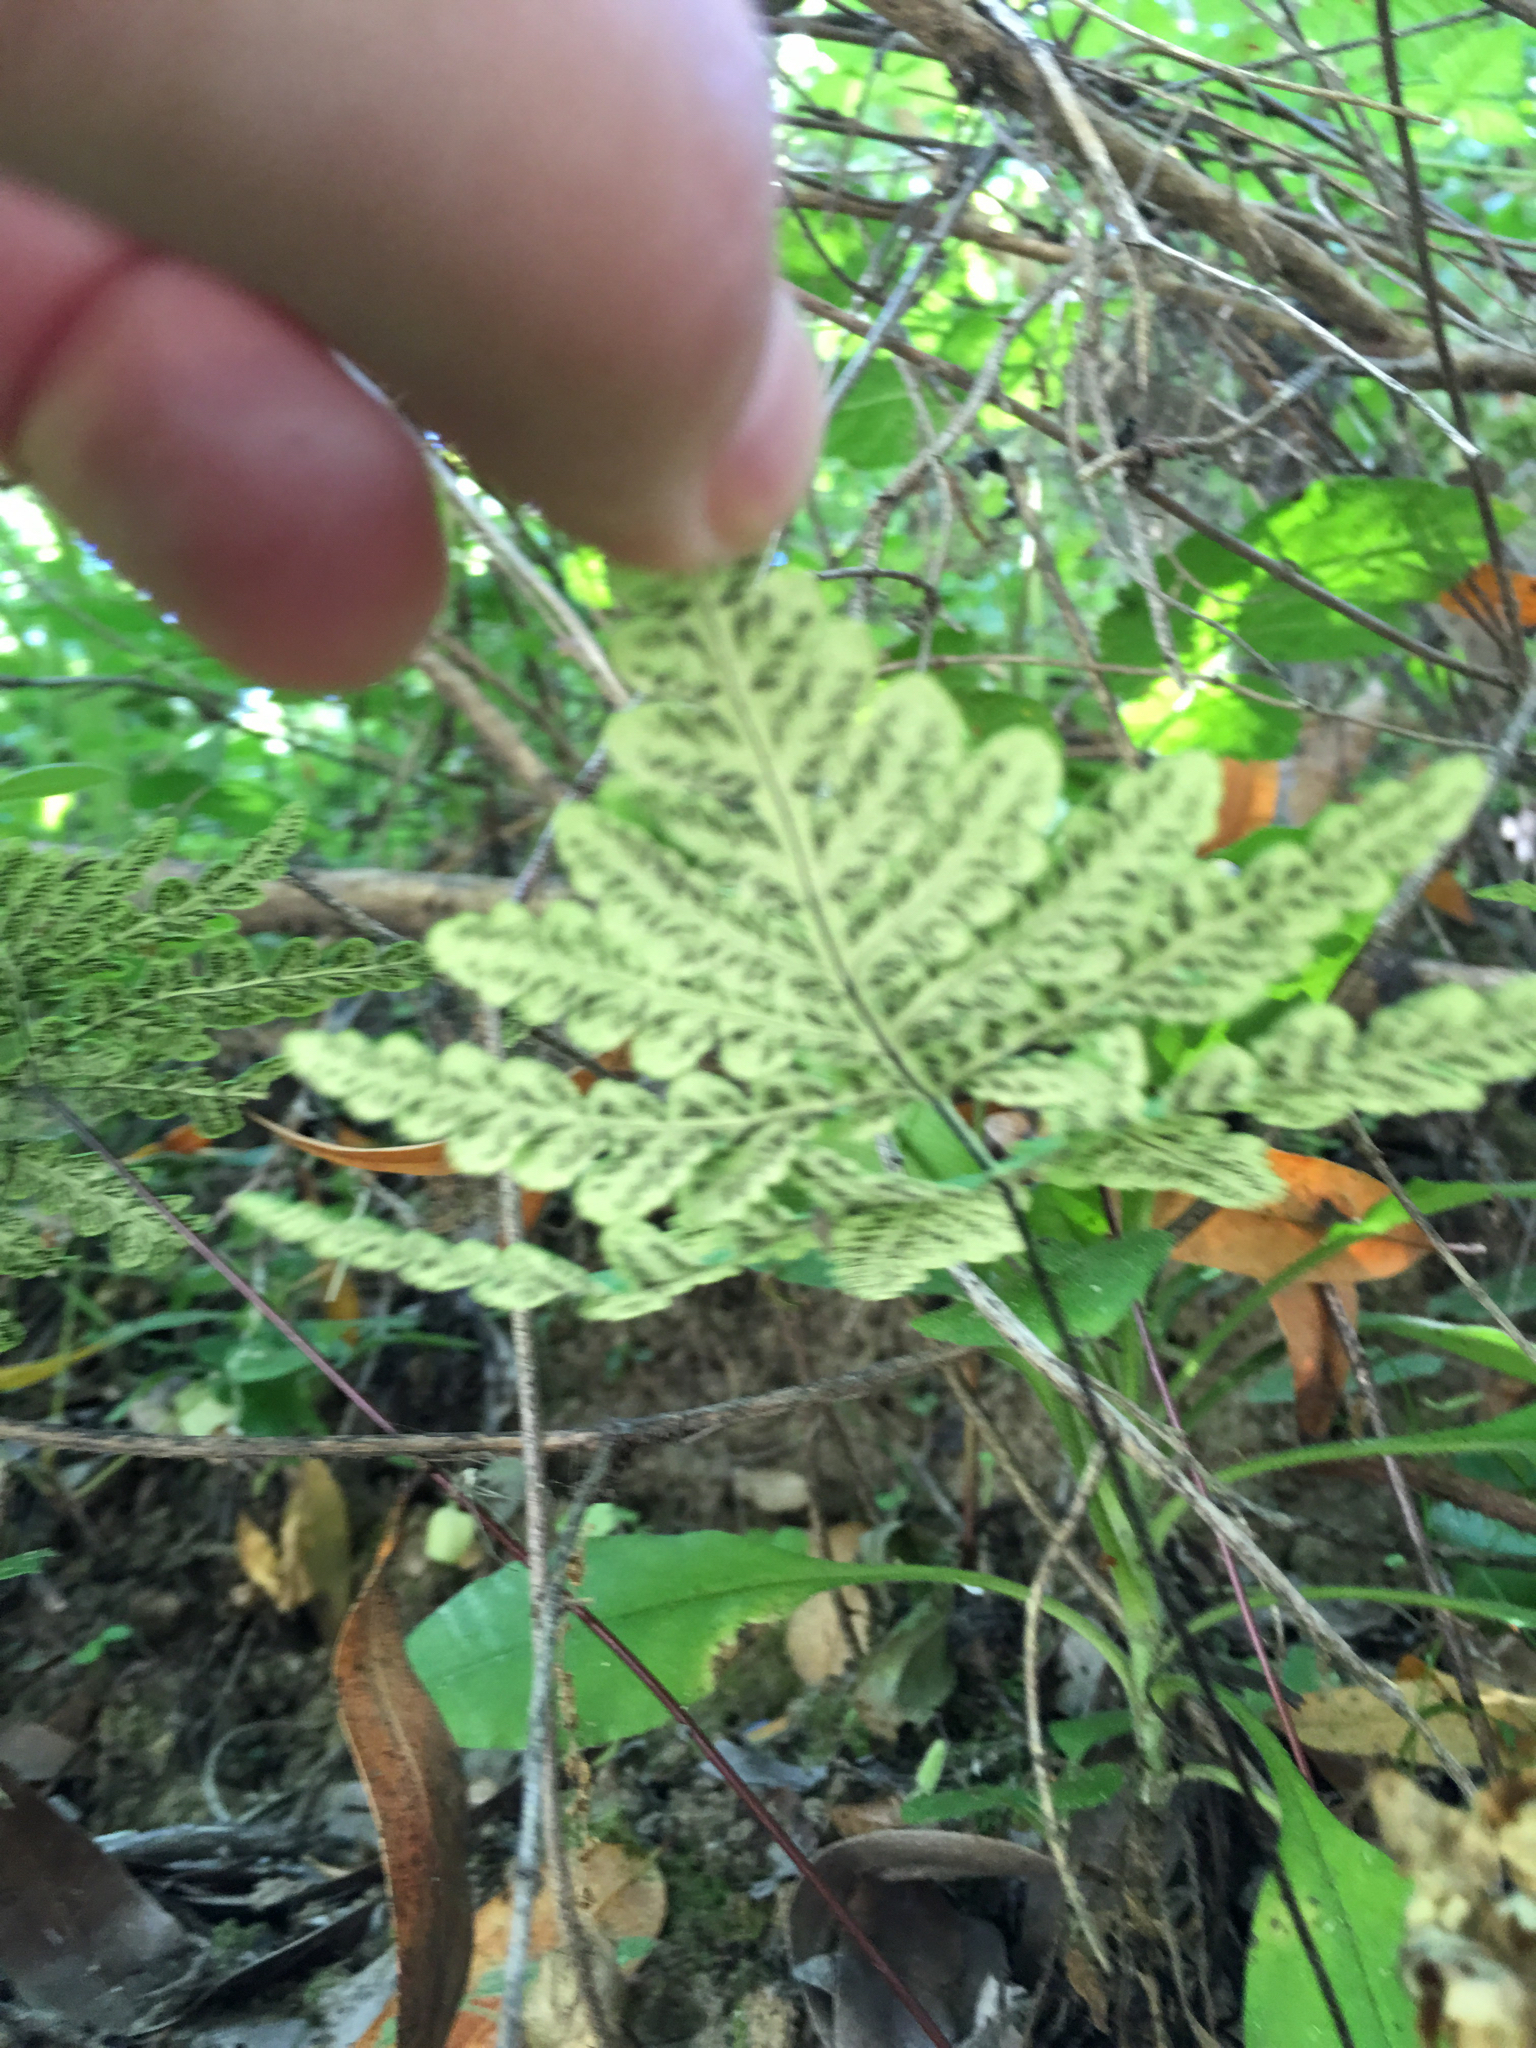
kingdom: Plantae
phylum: Tracheophyta
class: Polypodiopsida
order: Polypodiales
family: Pteridaceae
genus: Pentagramma
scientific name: Pentagramma triangularis
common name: Gold fern
